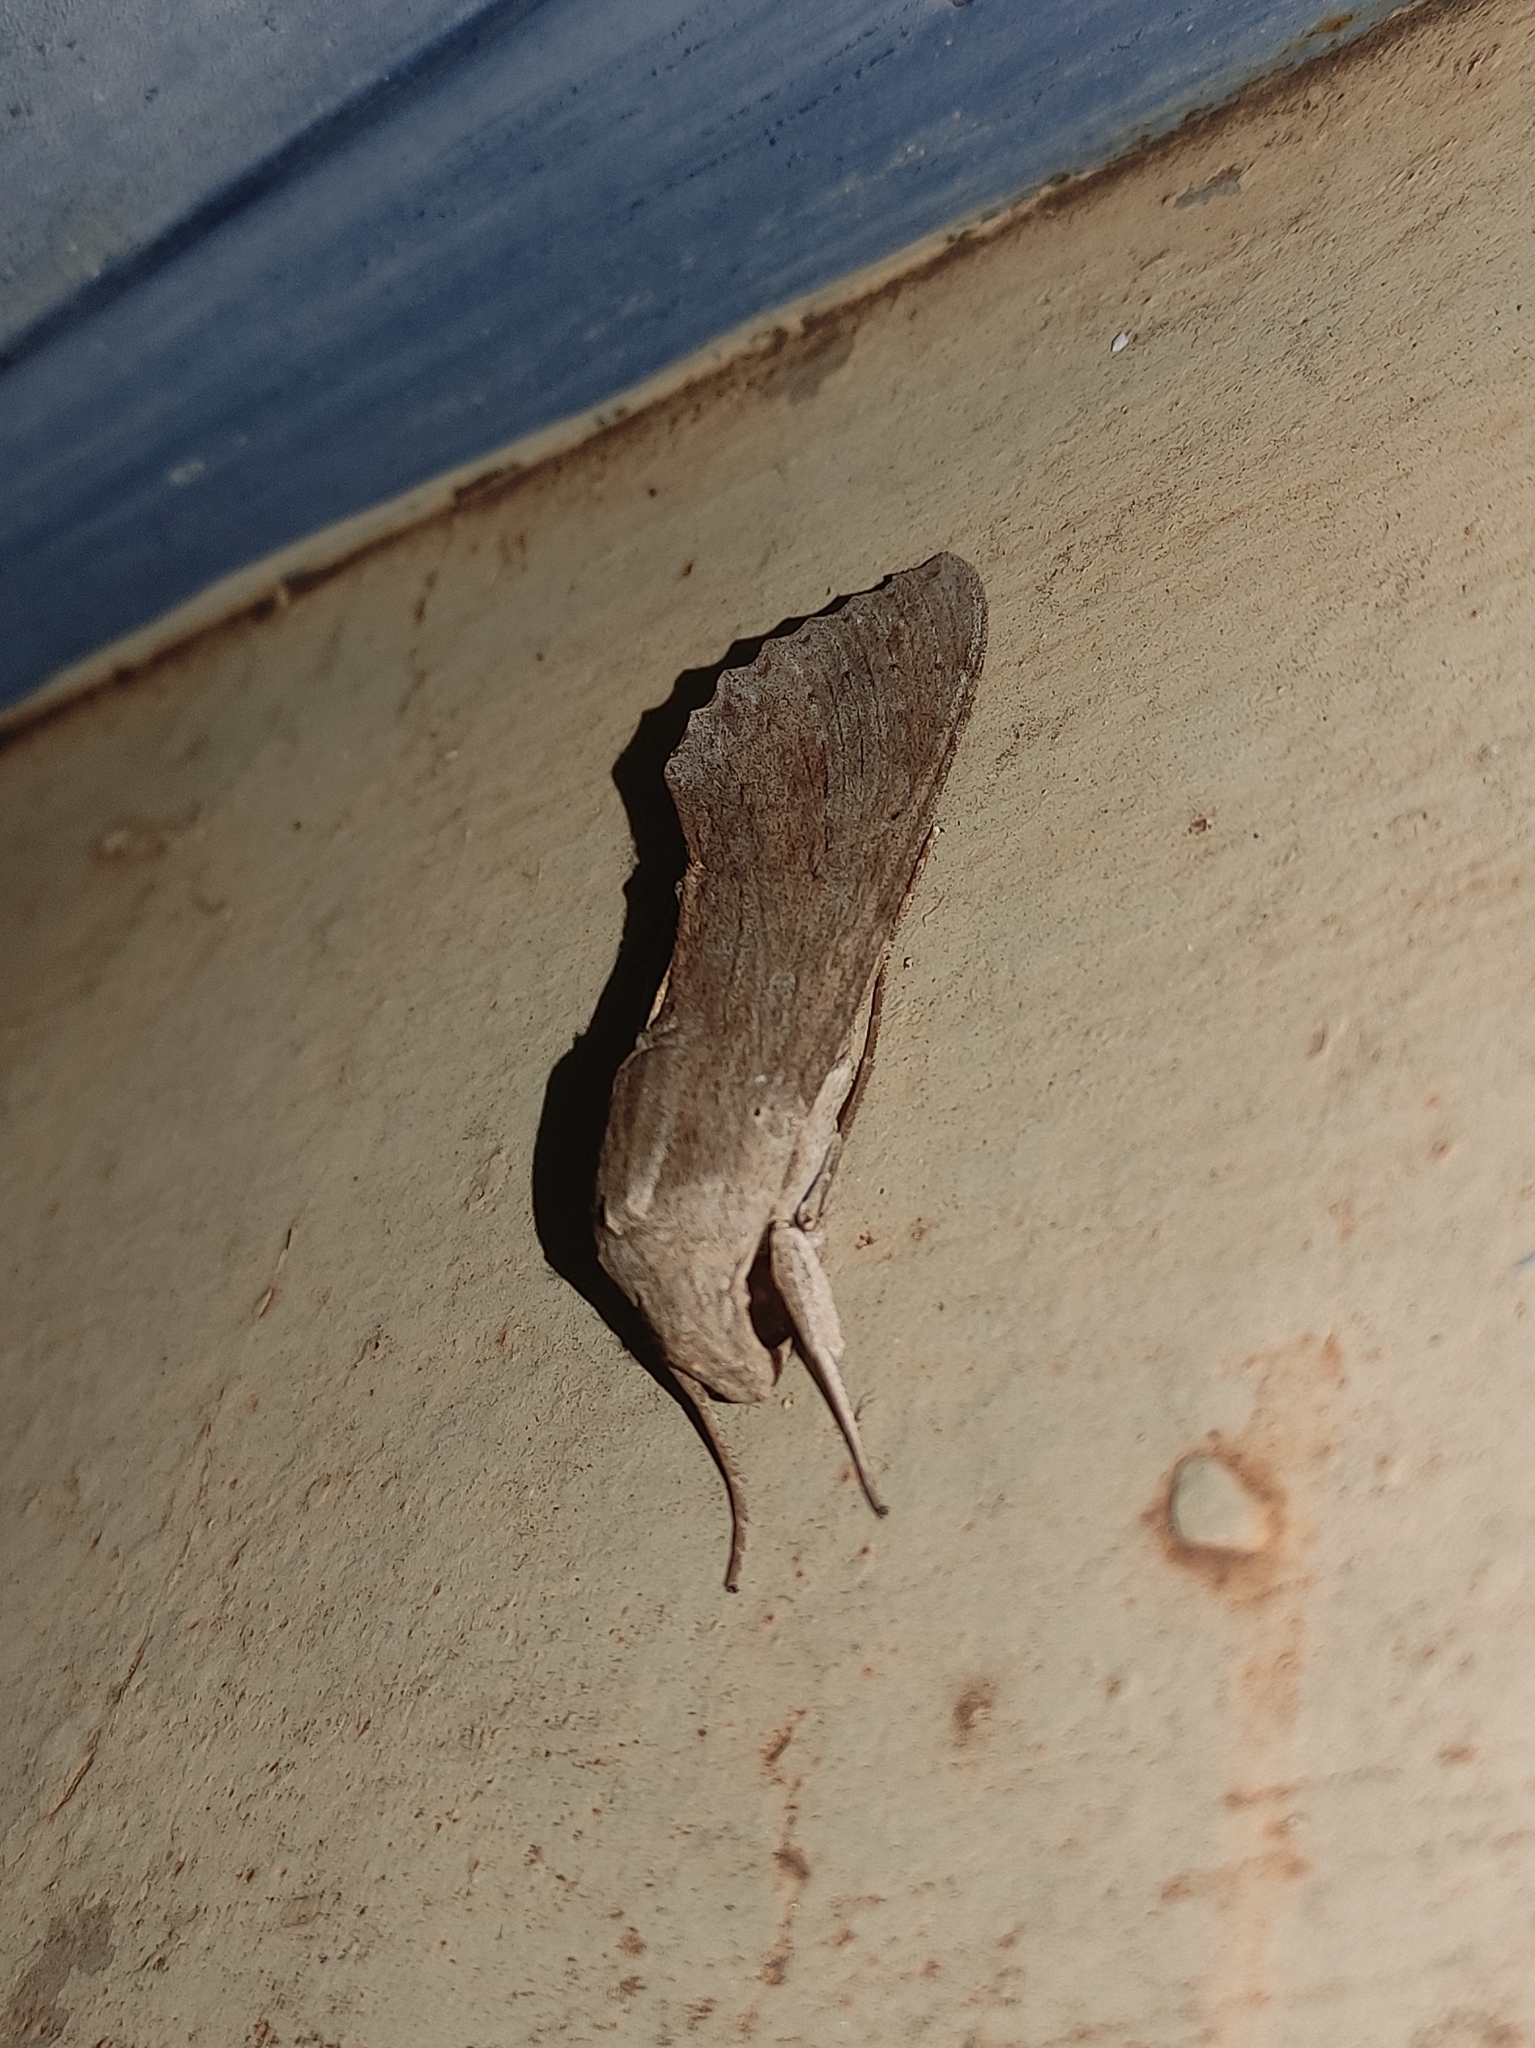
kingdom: Animalia
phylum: Arthropoda
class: Insecta
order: Lepidoptera
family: Sphingidae
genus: Erinnyis
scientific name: Erinnyis ello
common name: Ello sphinx
